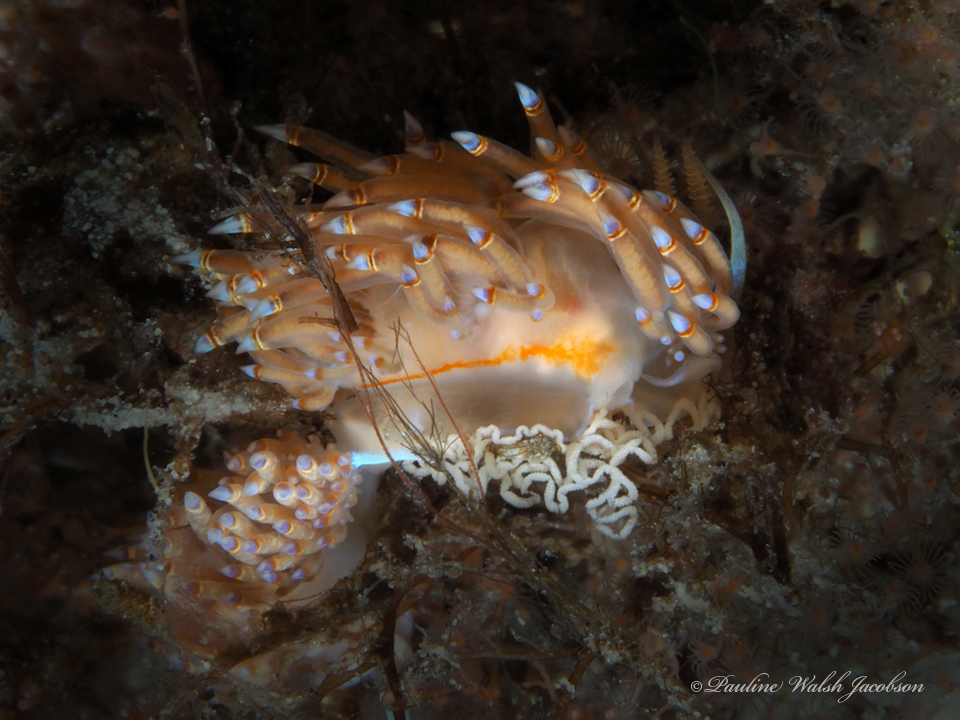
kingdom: Animalia
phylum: Mollusca
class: Gastropoda
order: Nudibranchia
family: Myrrhinidae
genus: Dondice
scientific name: Dondice jupiteriensis
